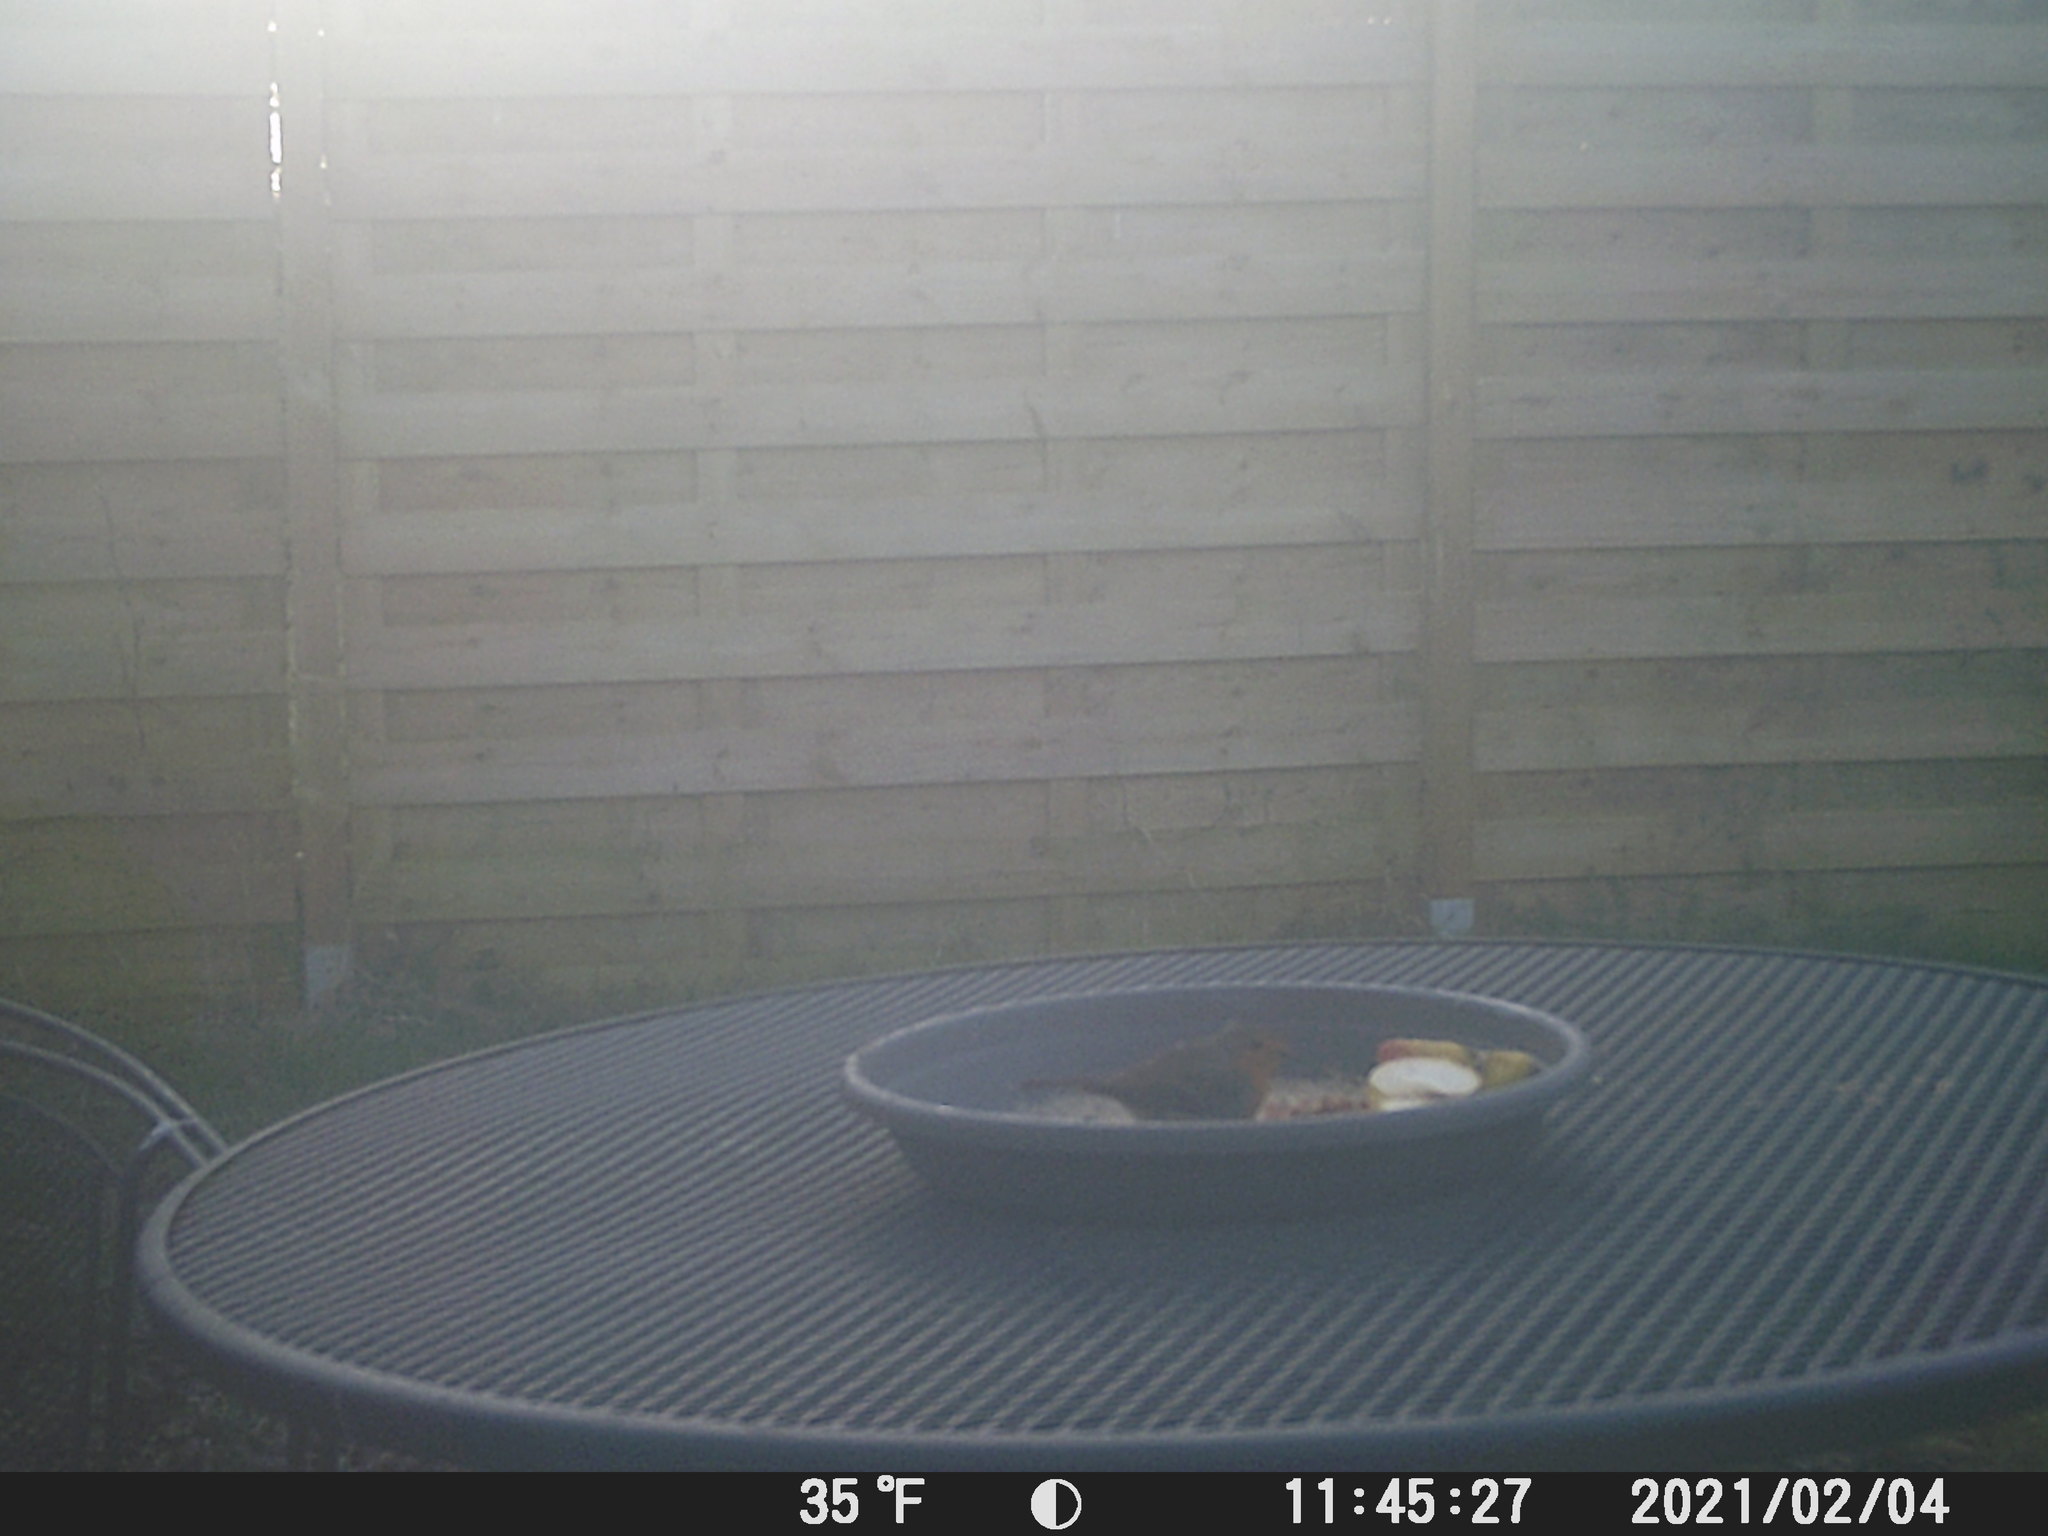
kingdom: Animalia
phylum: Chordata
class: Aves
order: Passeriformes
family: Muscicapidae
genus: Erithacus
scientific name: Erithacus rubecula
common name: European robin
